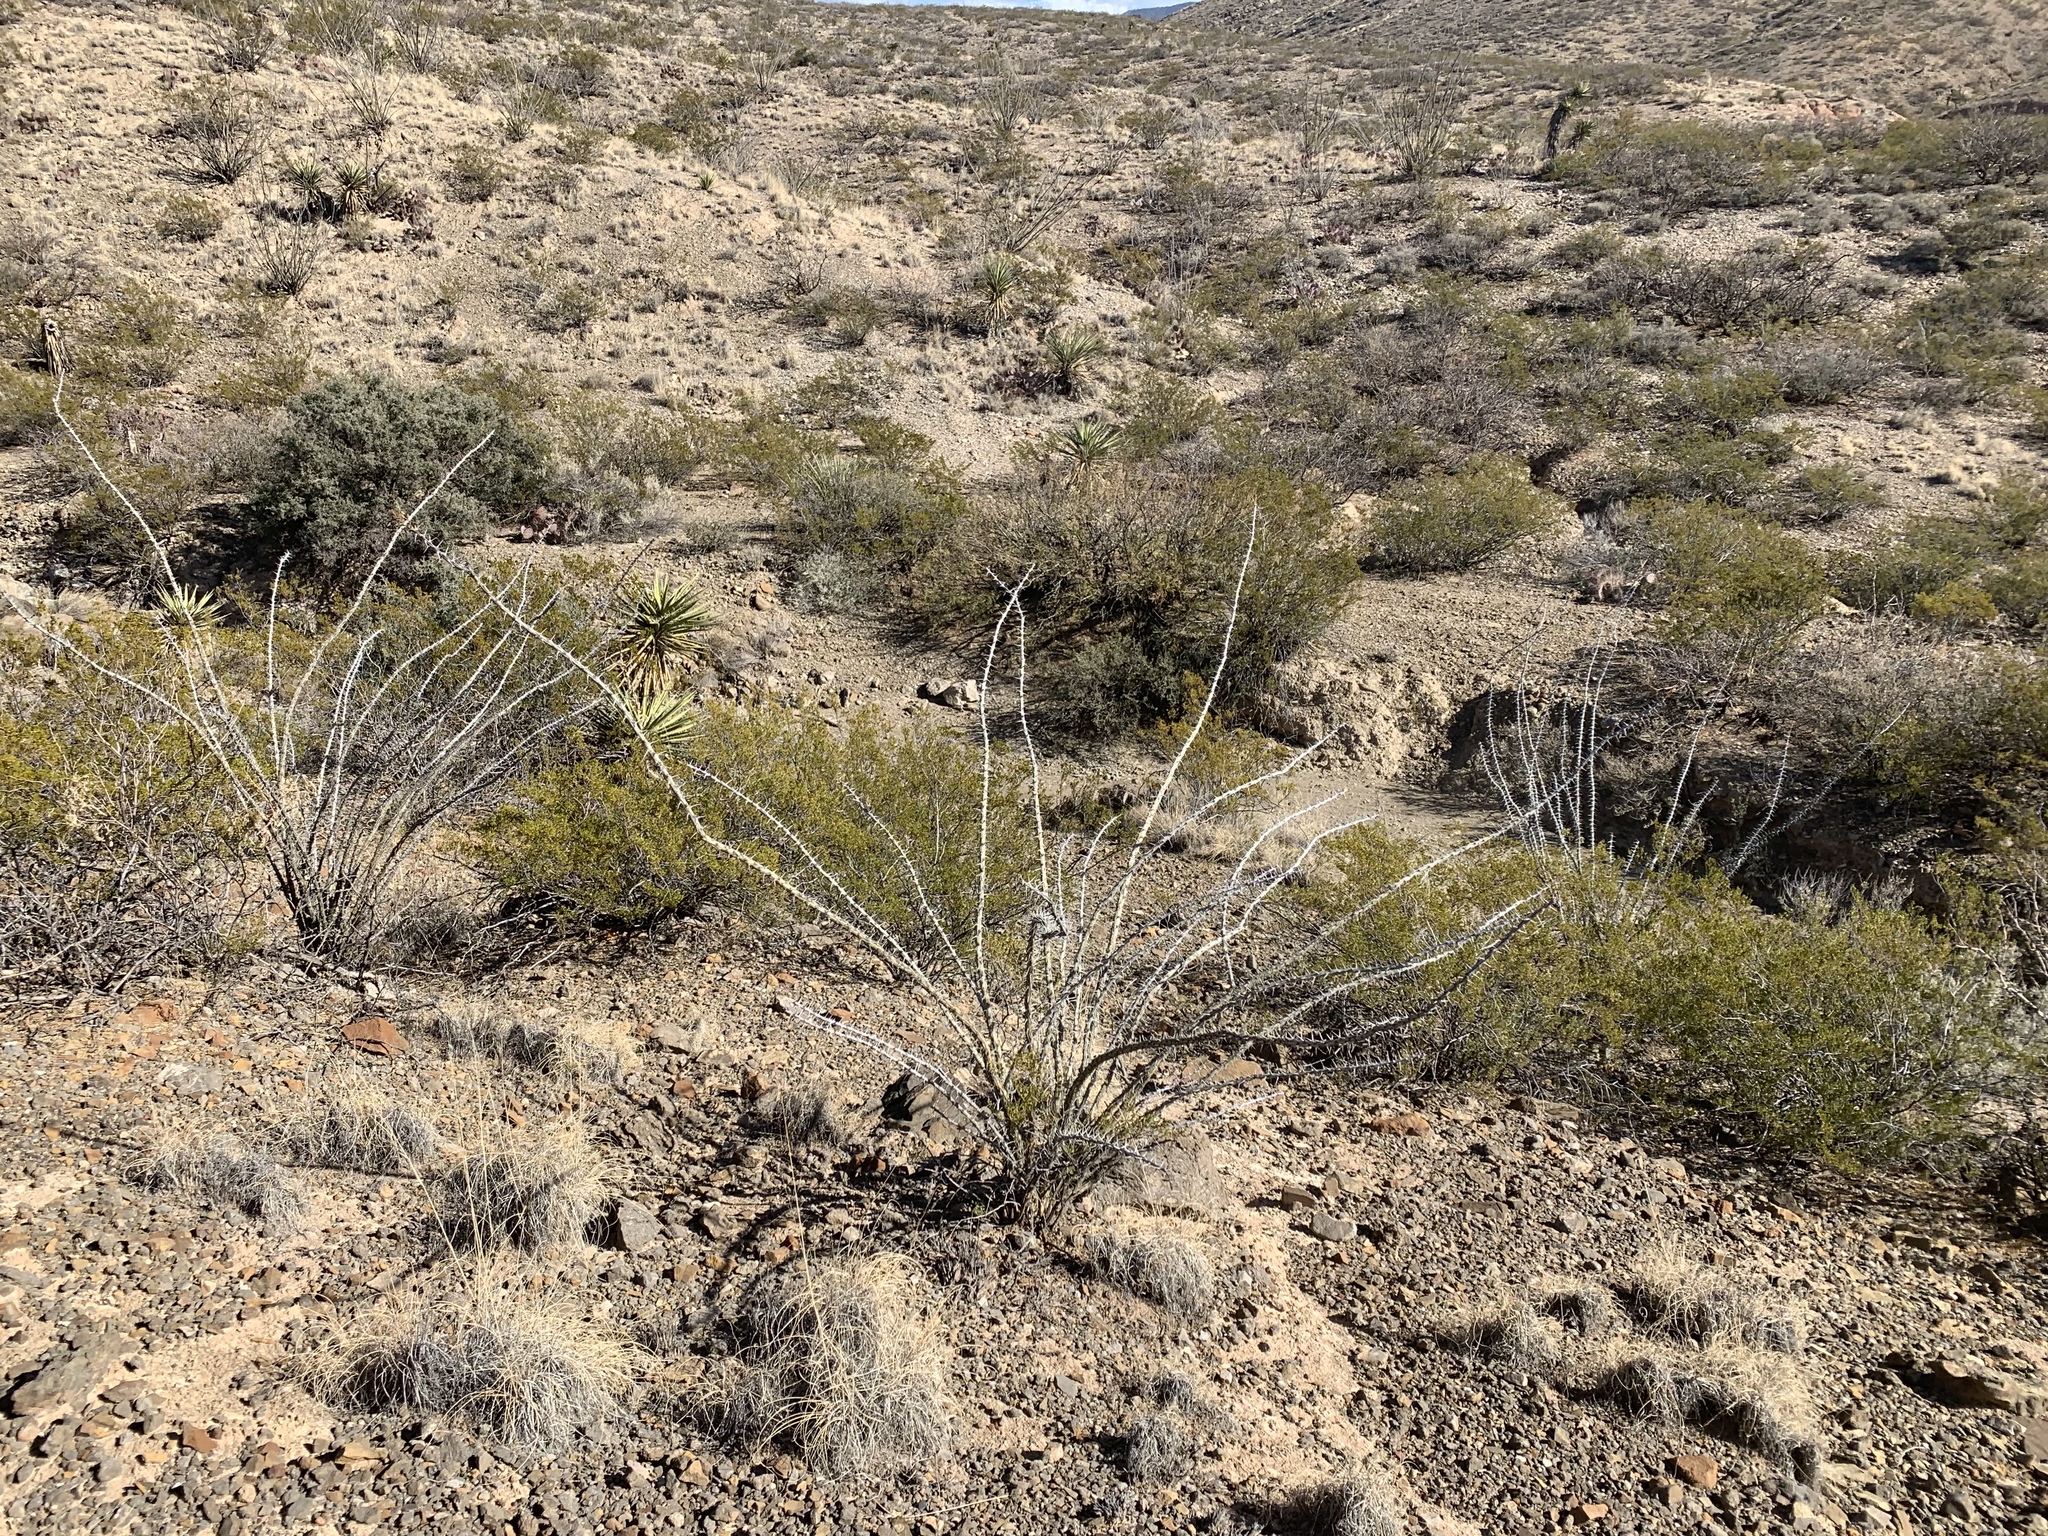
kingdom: Plantae
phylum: Tracheophyta
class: Magnoliopsida
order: Ericales
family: Fouquieriaceae
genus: Fouquieria
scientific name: Fouquieria splendens
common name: Vine-cactus
